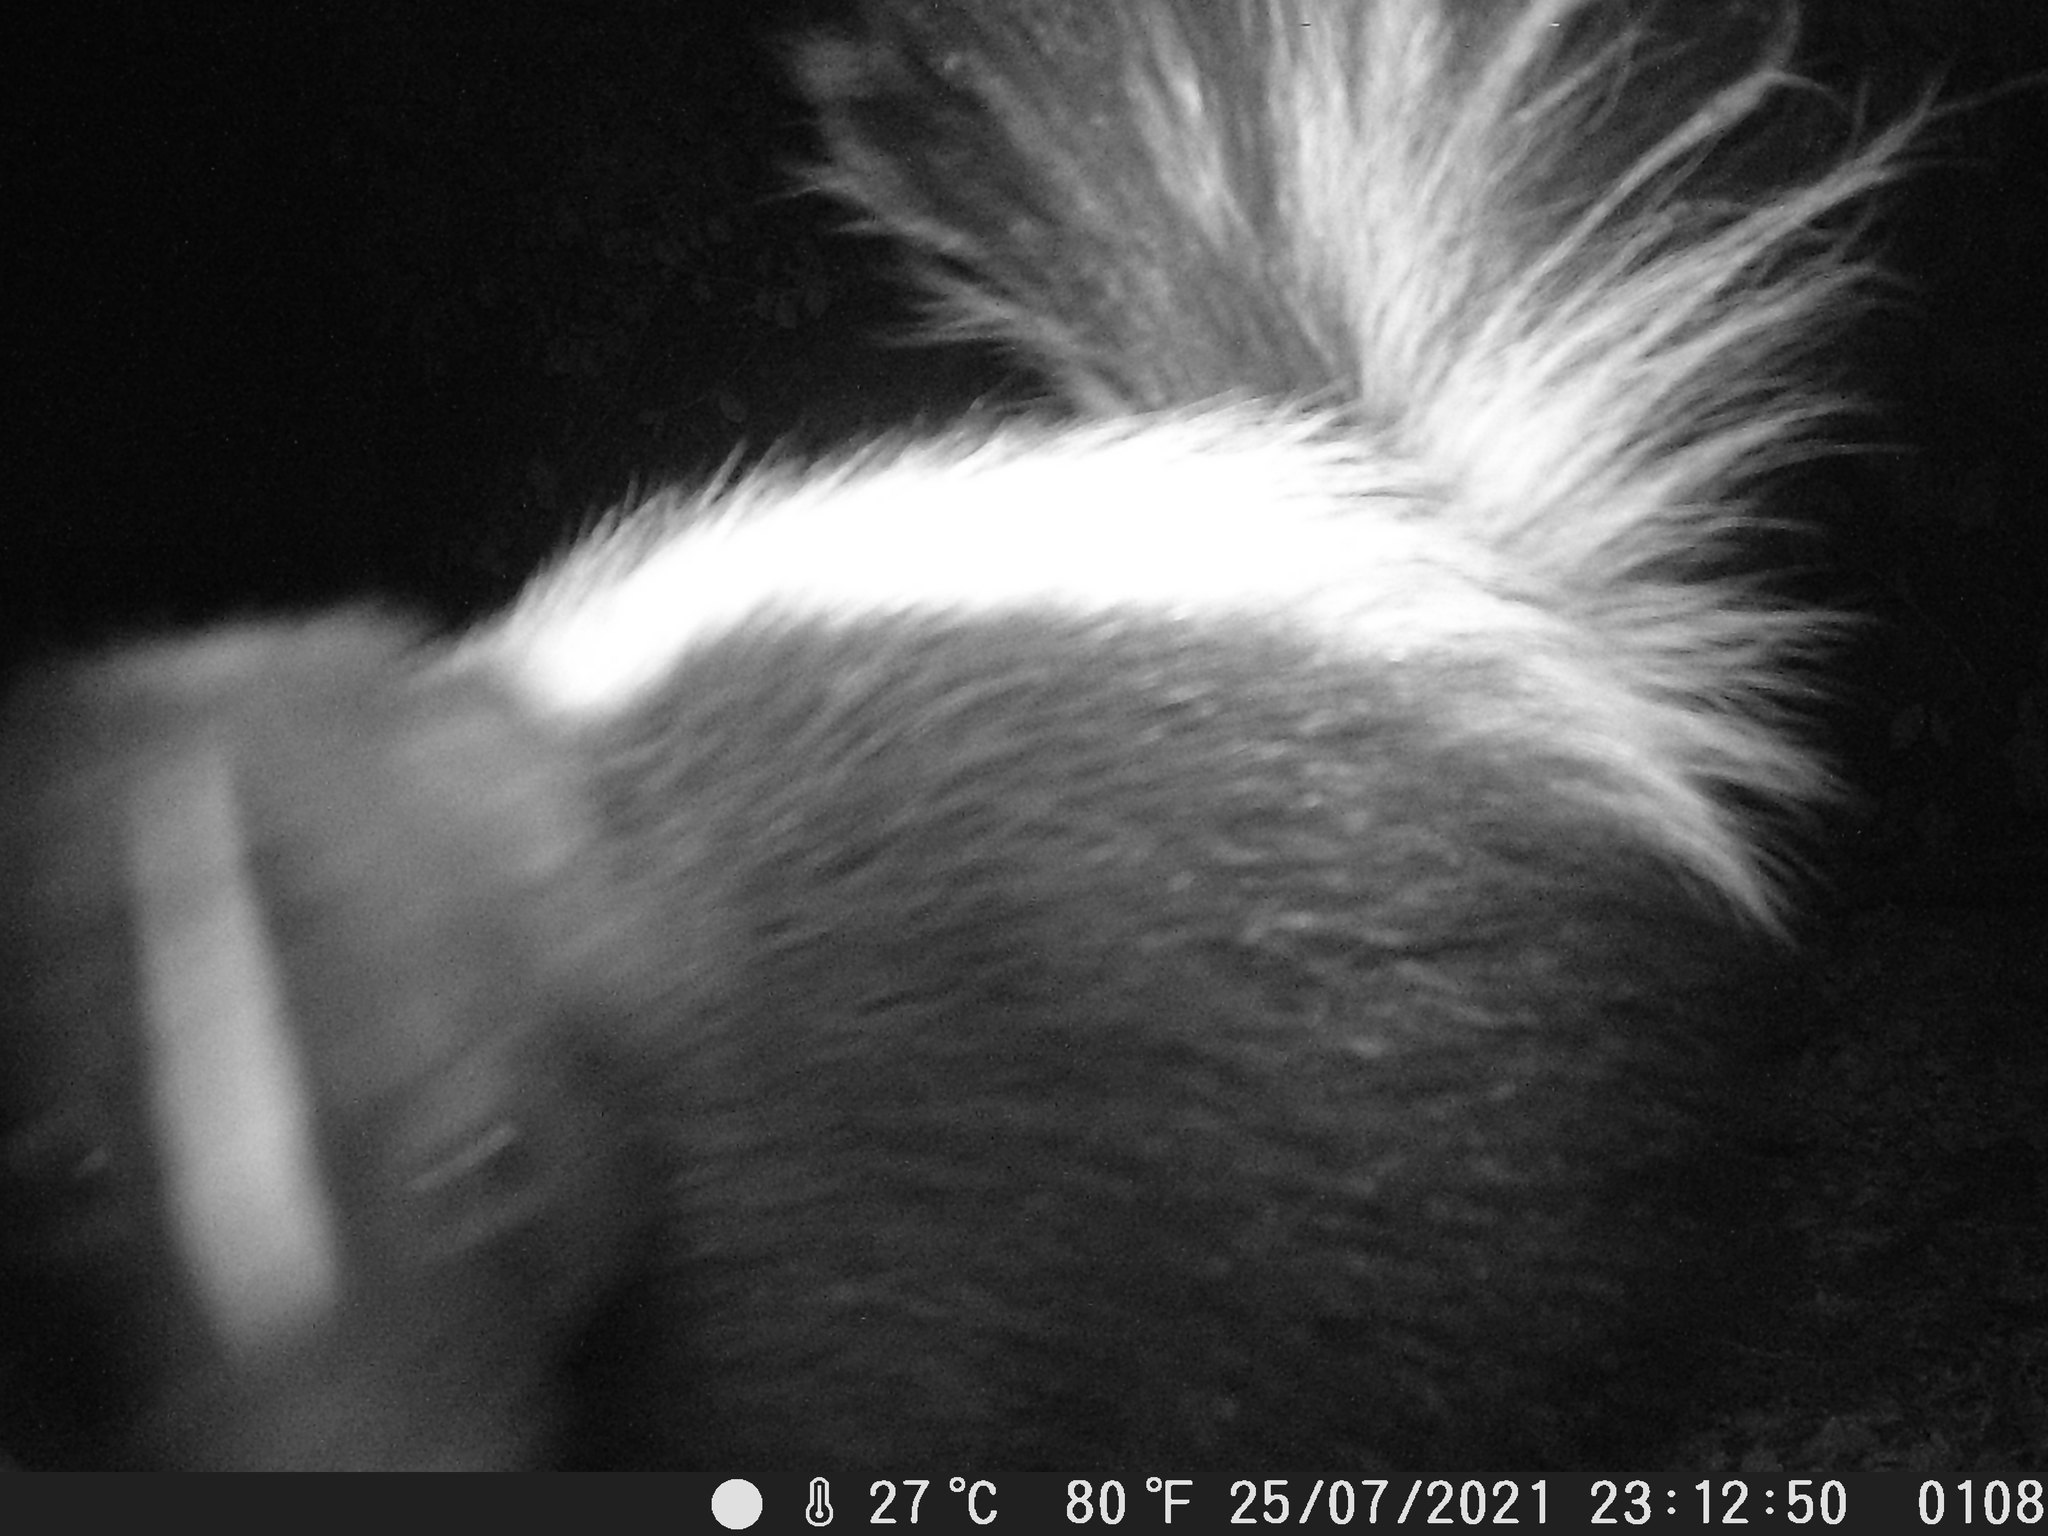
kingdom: Animalia
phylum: Chordata
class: Mammalia
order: Carnivora
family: Mephitidae
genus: Mephitis
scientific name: Mephitis mephitis
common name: Striped skunk
